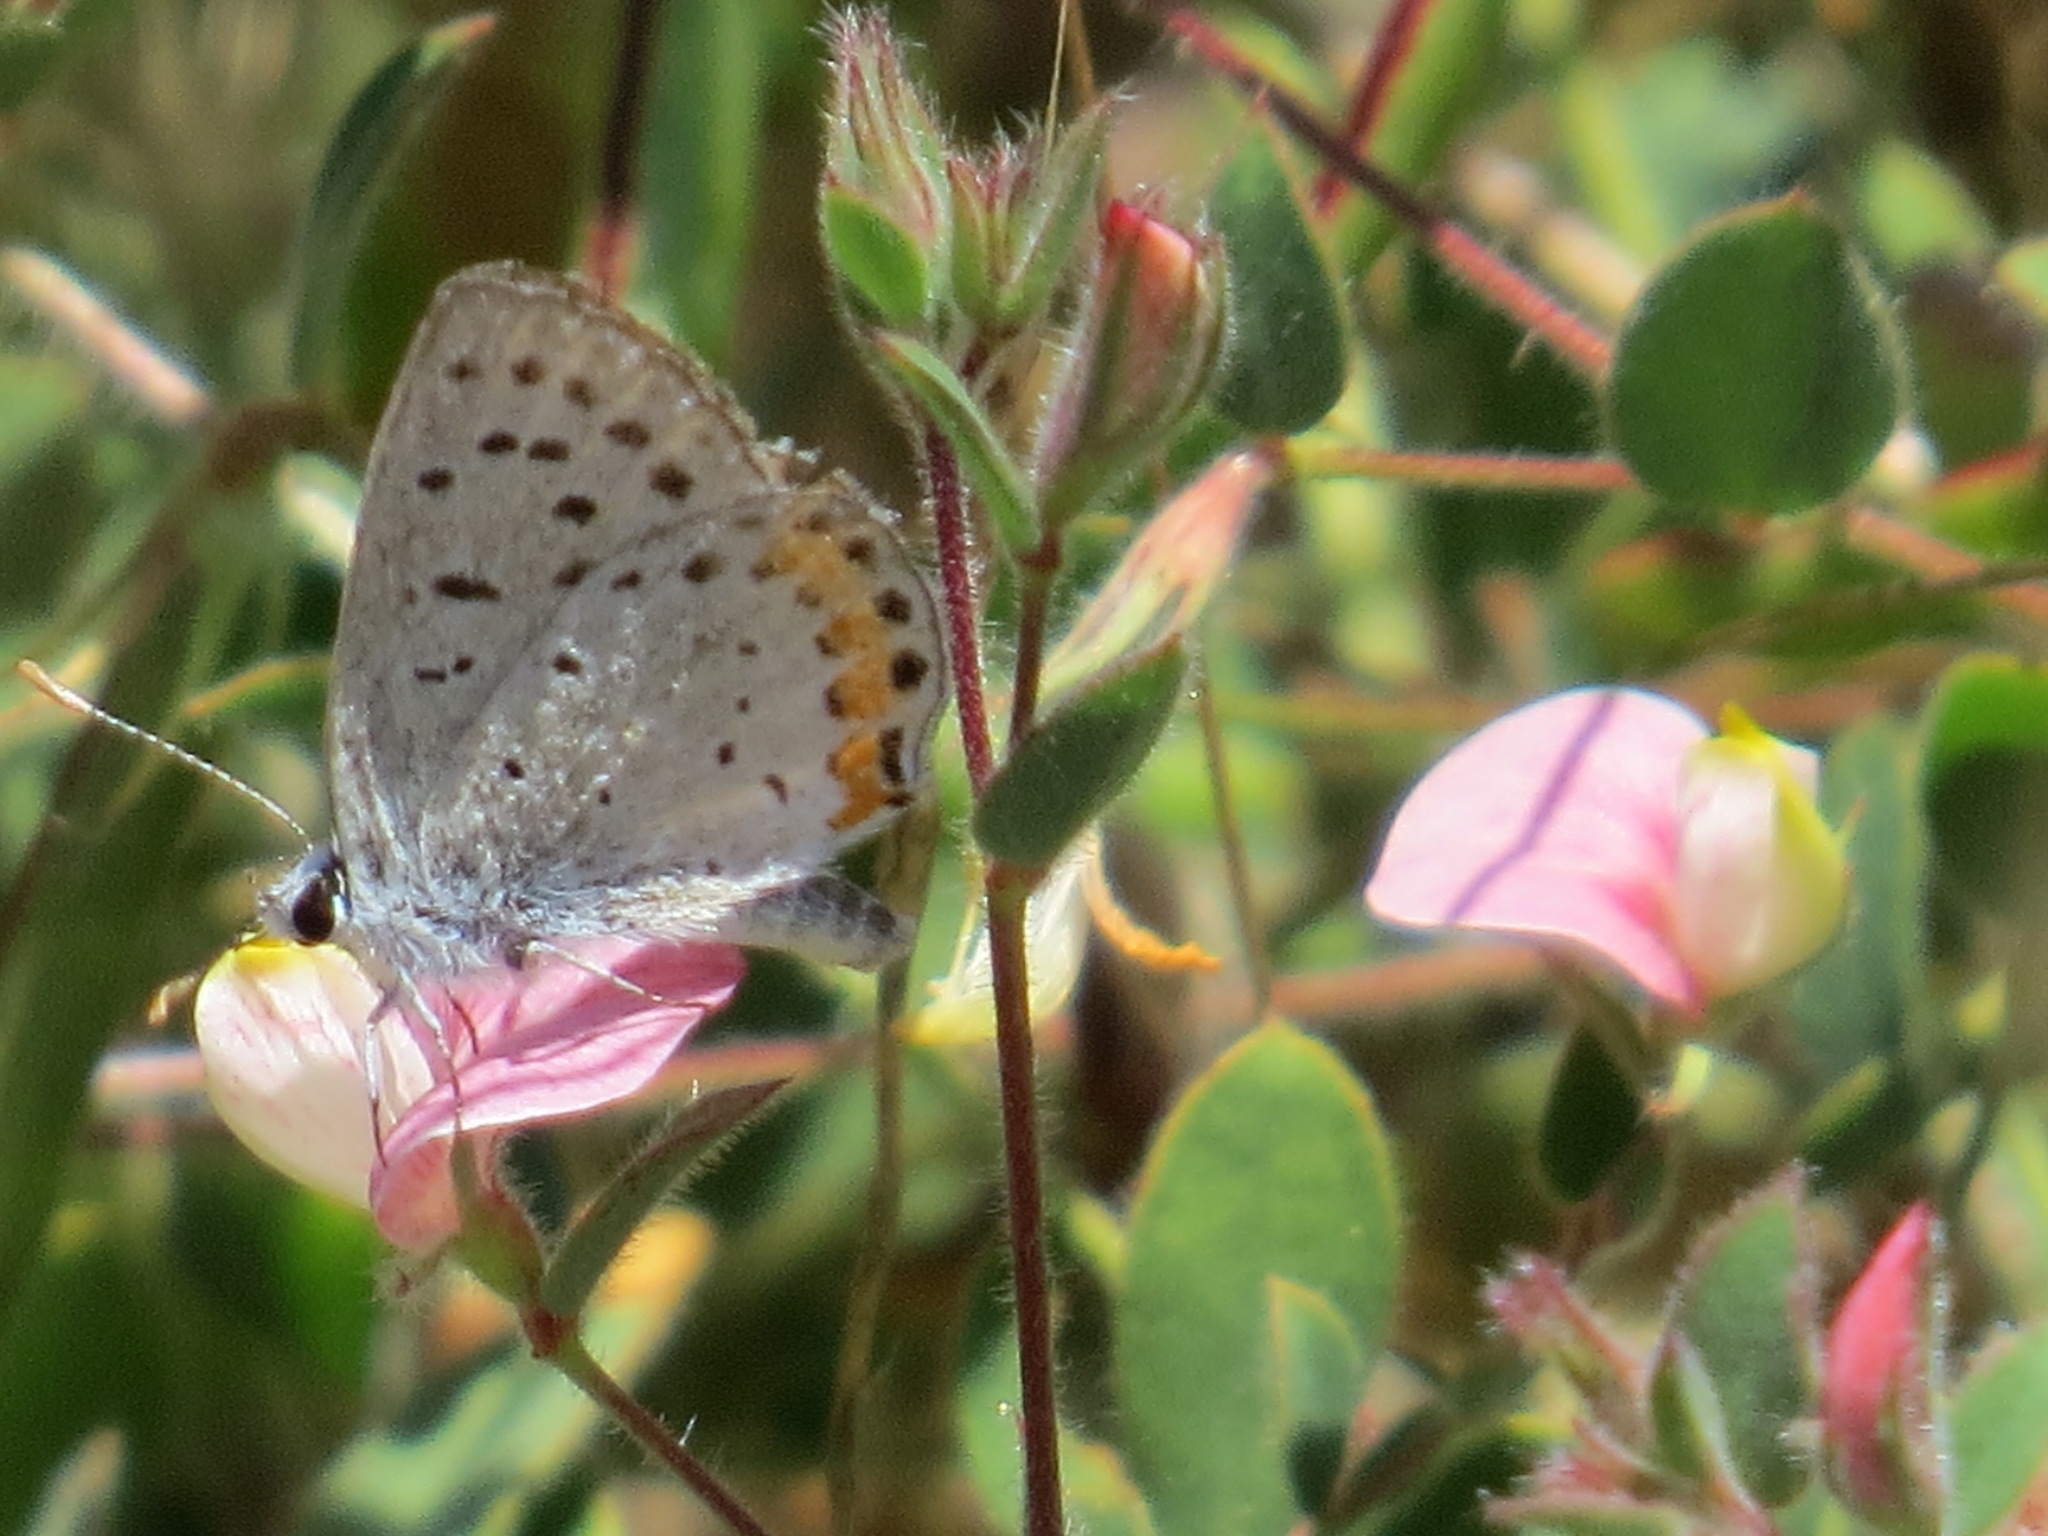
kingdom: Animalia
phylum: Arthropoda
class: Insecta
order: Lepidoptera
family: Lycaenidae
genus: Icaricia
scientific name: Icaricia acmon
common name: Acmon blue
